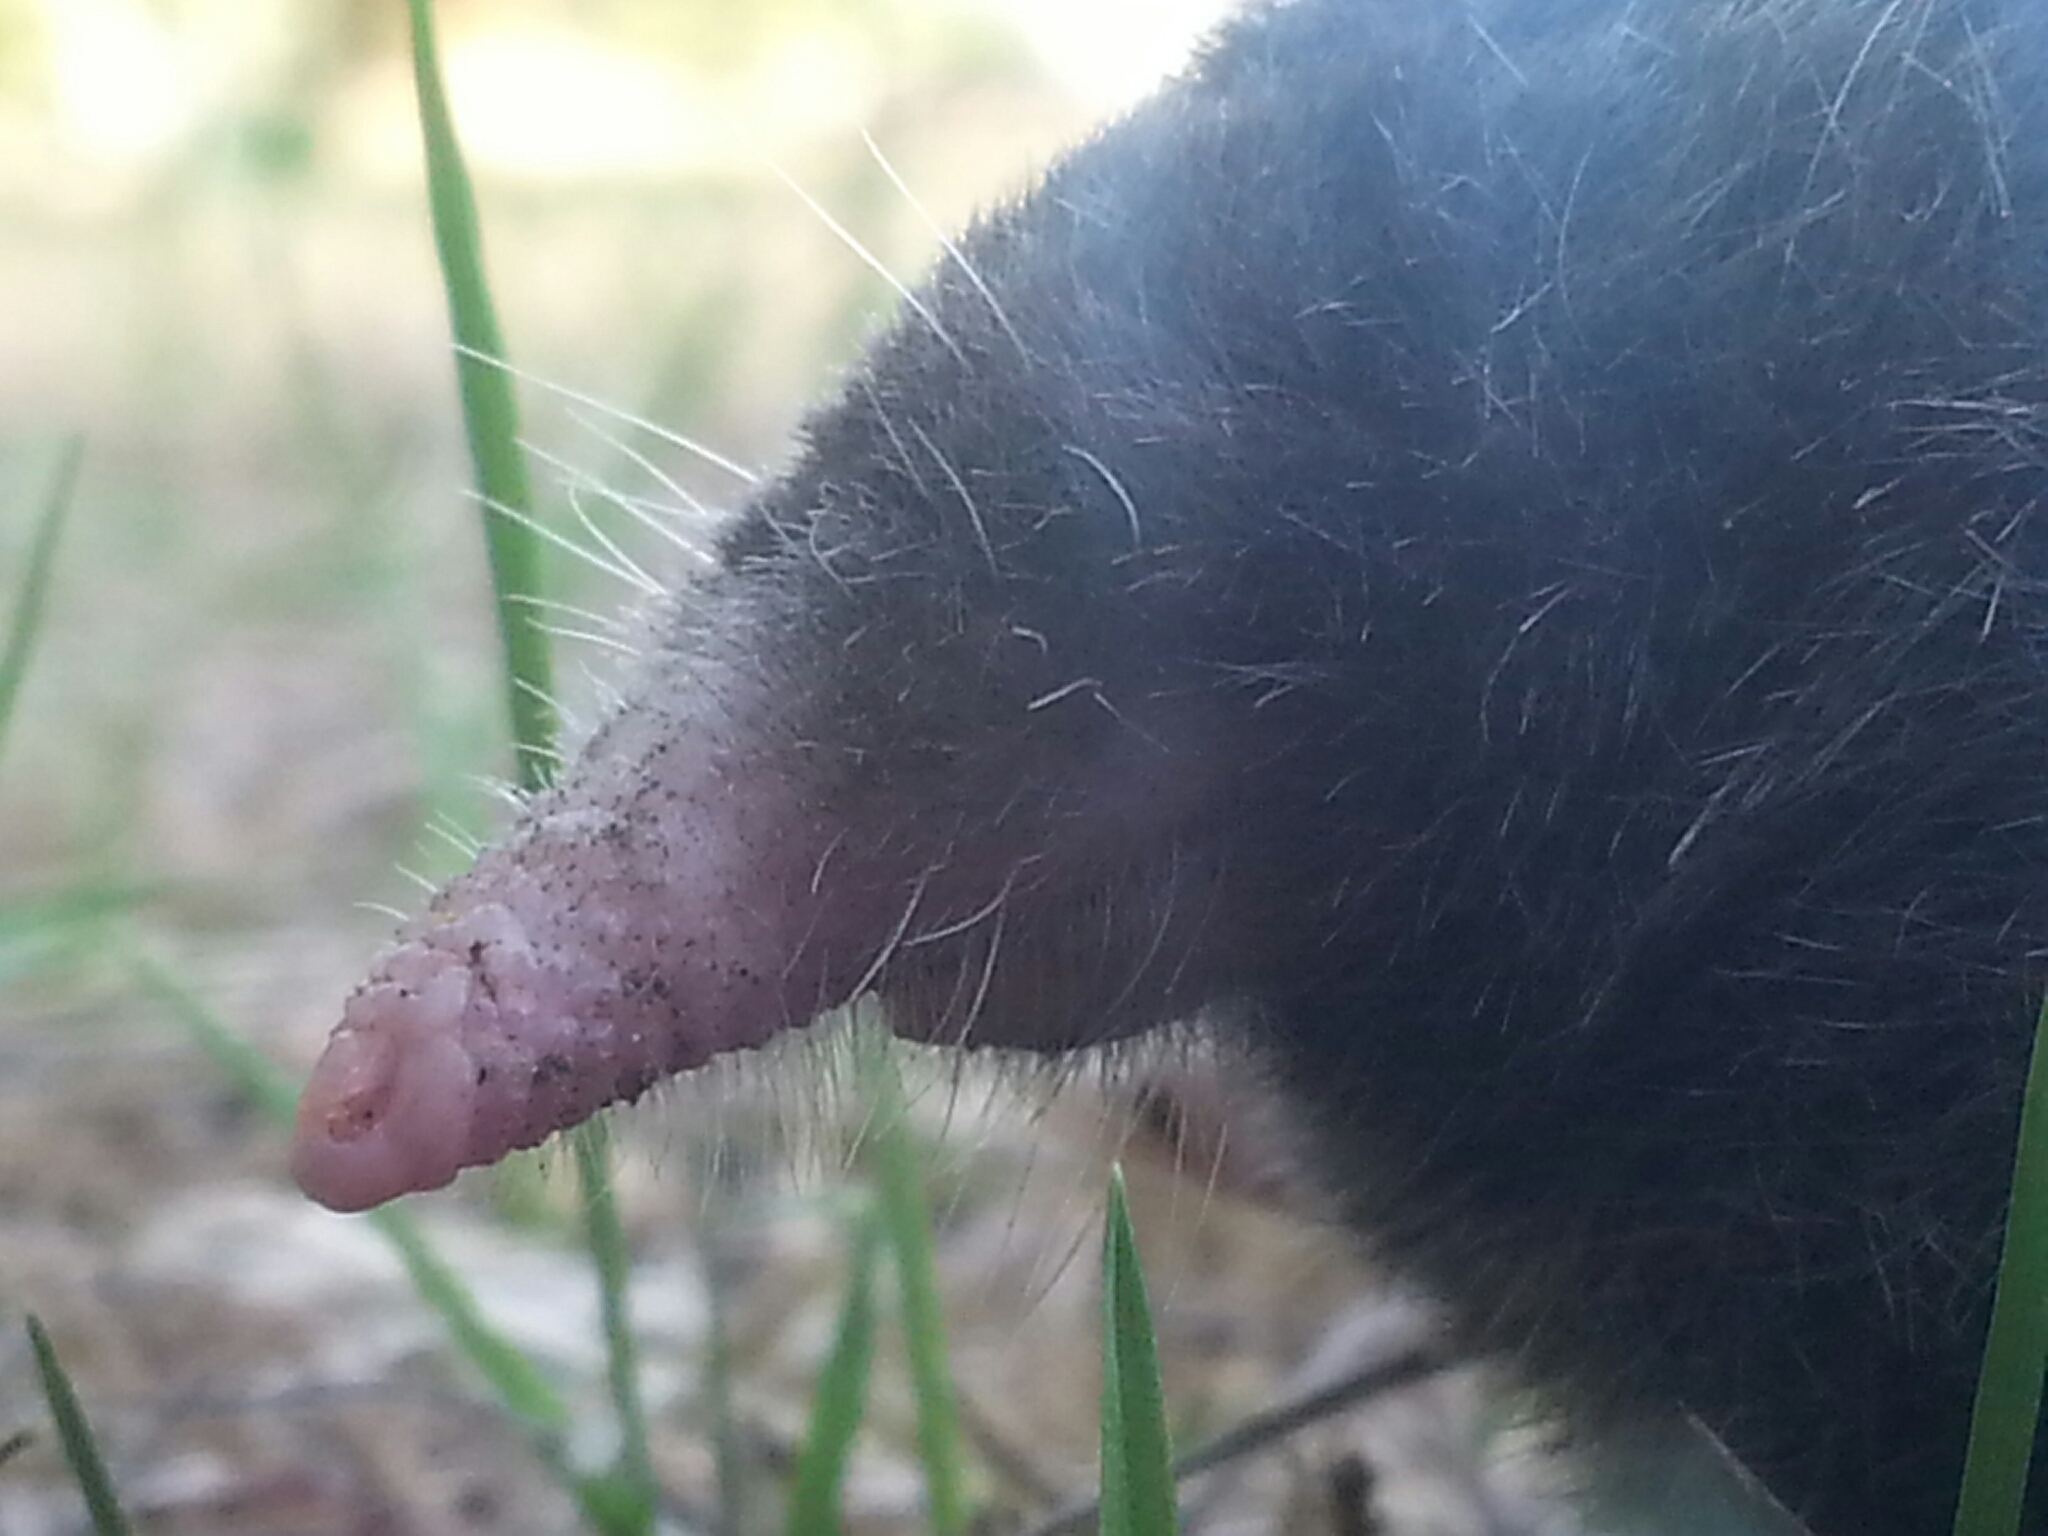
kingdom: Animalia
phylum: Chordata
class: Mammalia
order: Soricomorpha
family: Talpidae
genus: Scapanus
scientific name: Scapanus orarius
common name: Coast mole
